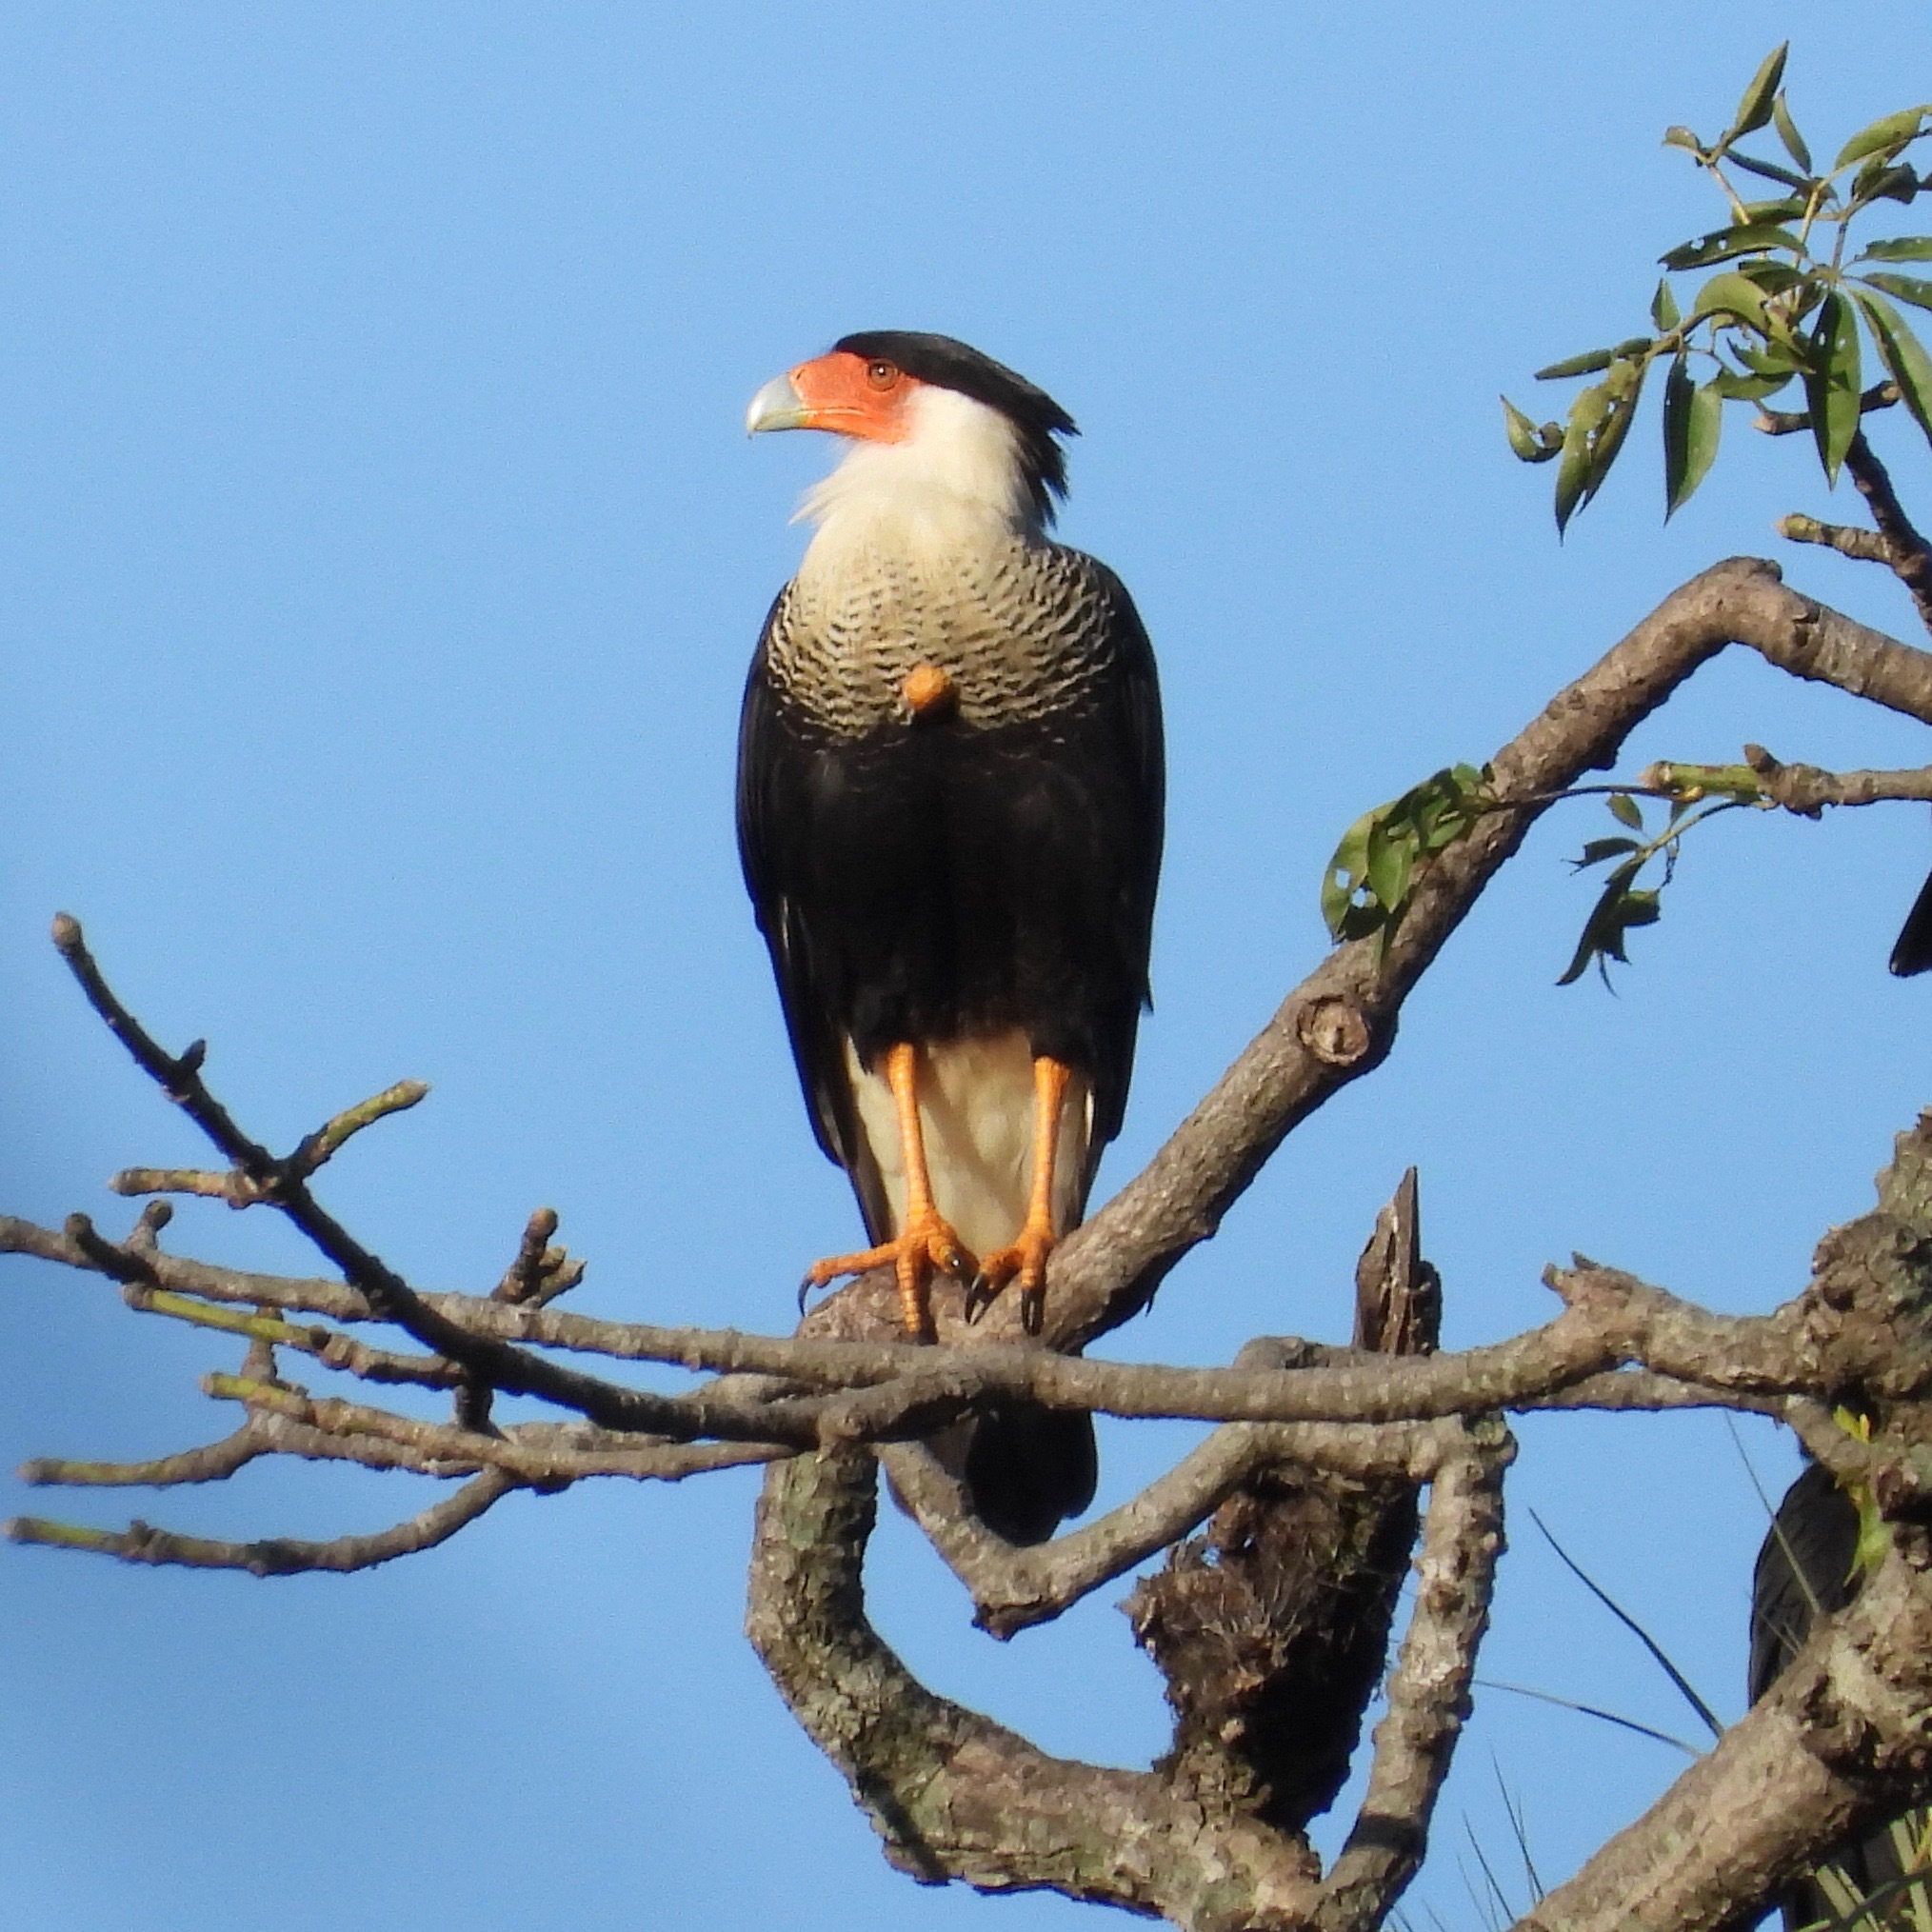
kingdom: Animalia
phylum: Chordata
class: Aves
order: Falconiformes
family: Falconidae
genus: Caracara
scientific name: Caracara plancus
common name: Southern caracara
